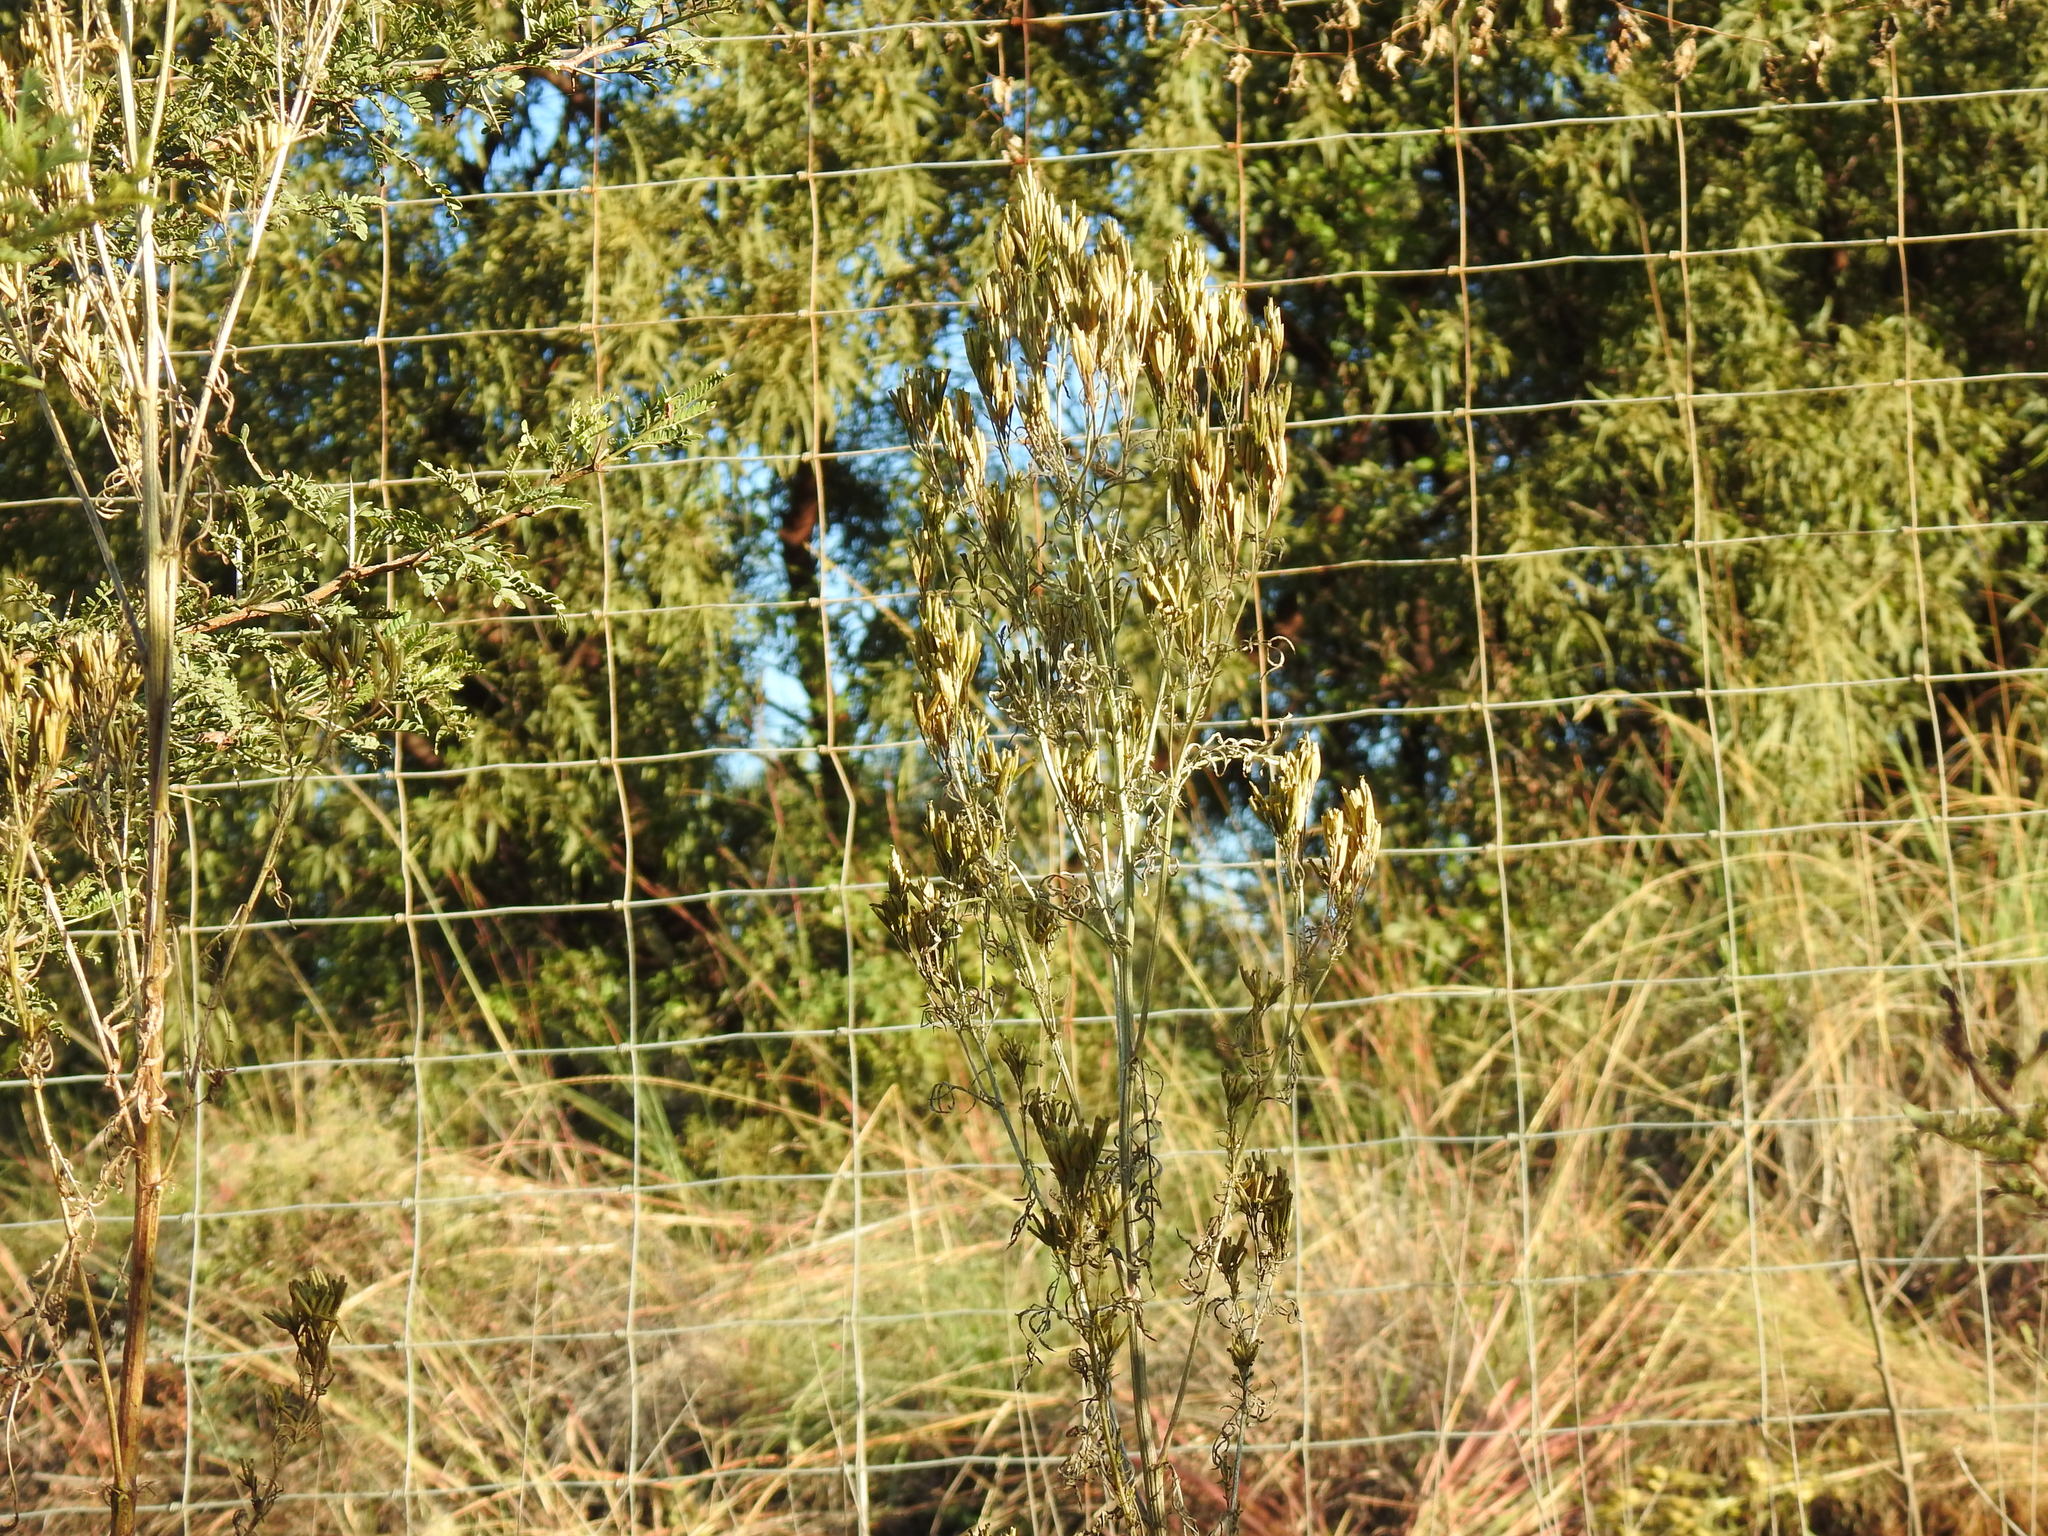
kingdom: Plantae
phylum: Tracheophyta
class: Magnoliopsida
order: Asterales
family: Asteraceae
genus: Tagetes
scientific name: Tagetes minuta
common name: Muster john henry
